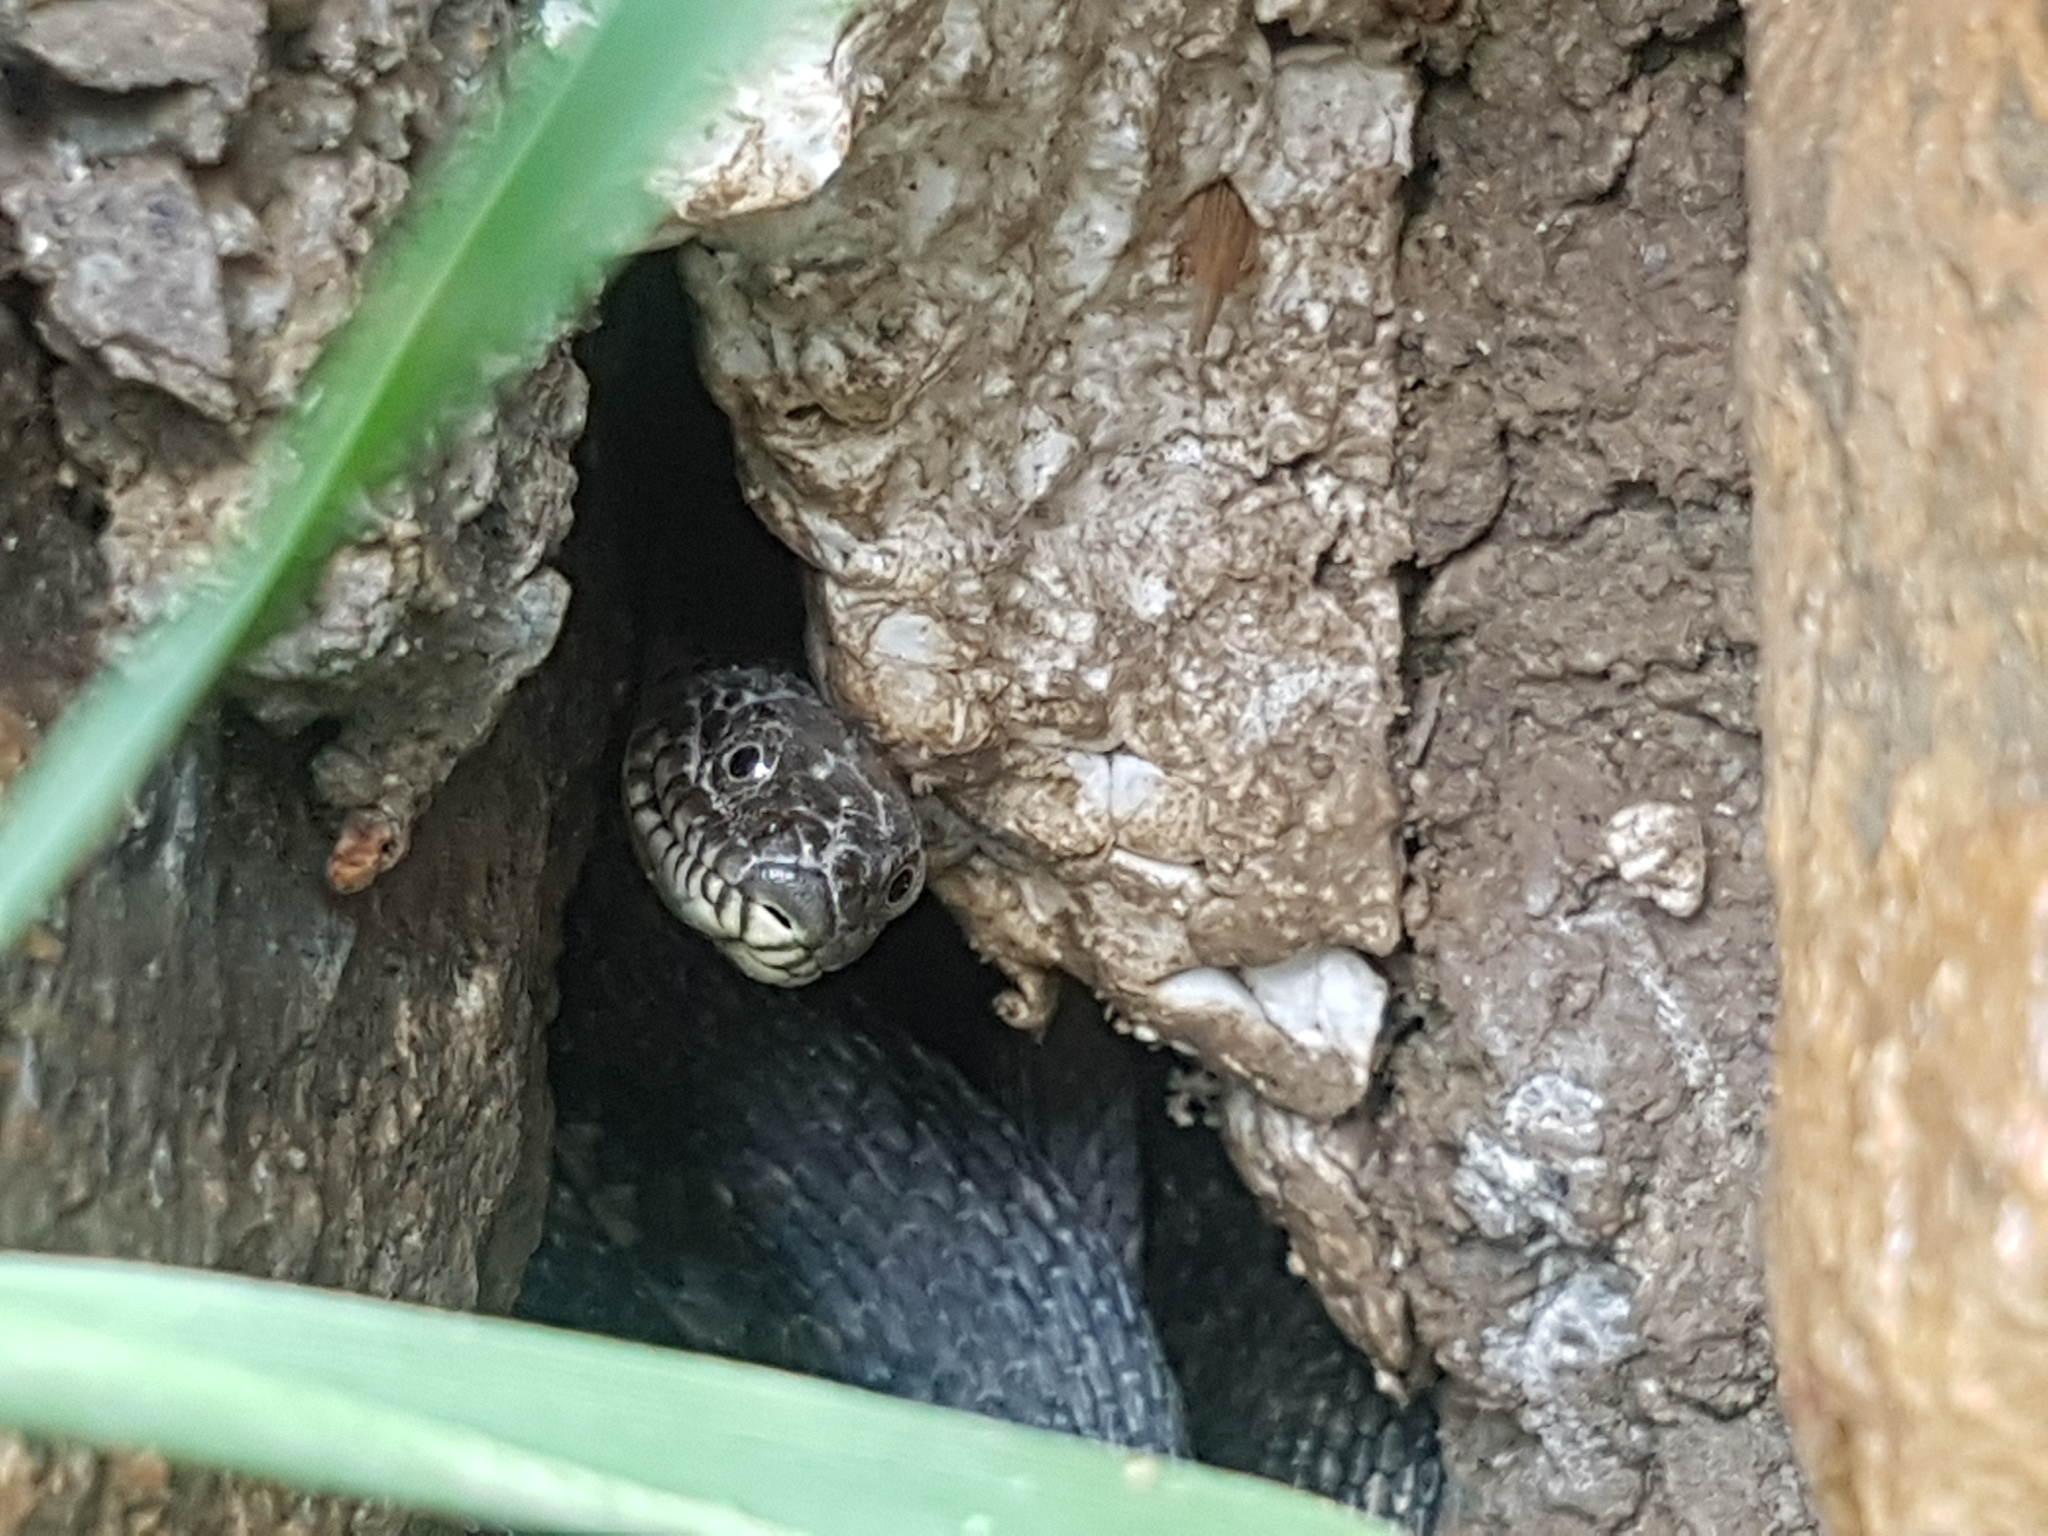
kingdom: Animalia
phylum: Chordata
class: Squamata
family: Colubridae
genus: Natrix
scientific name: Natrix tessellata
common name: Dice snake
